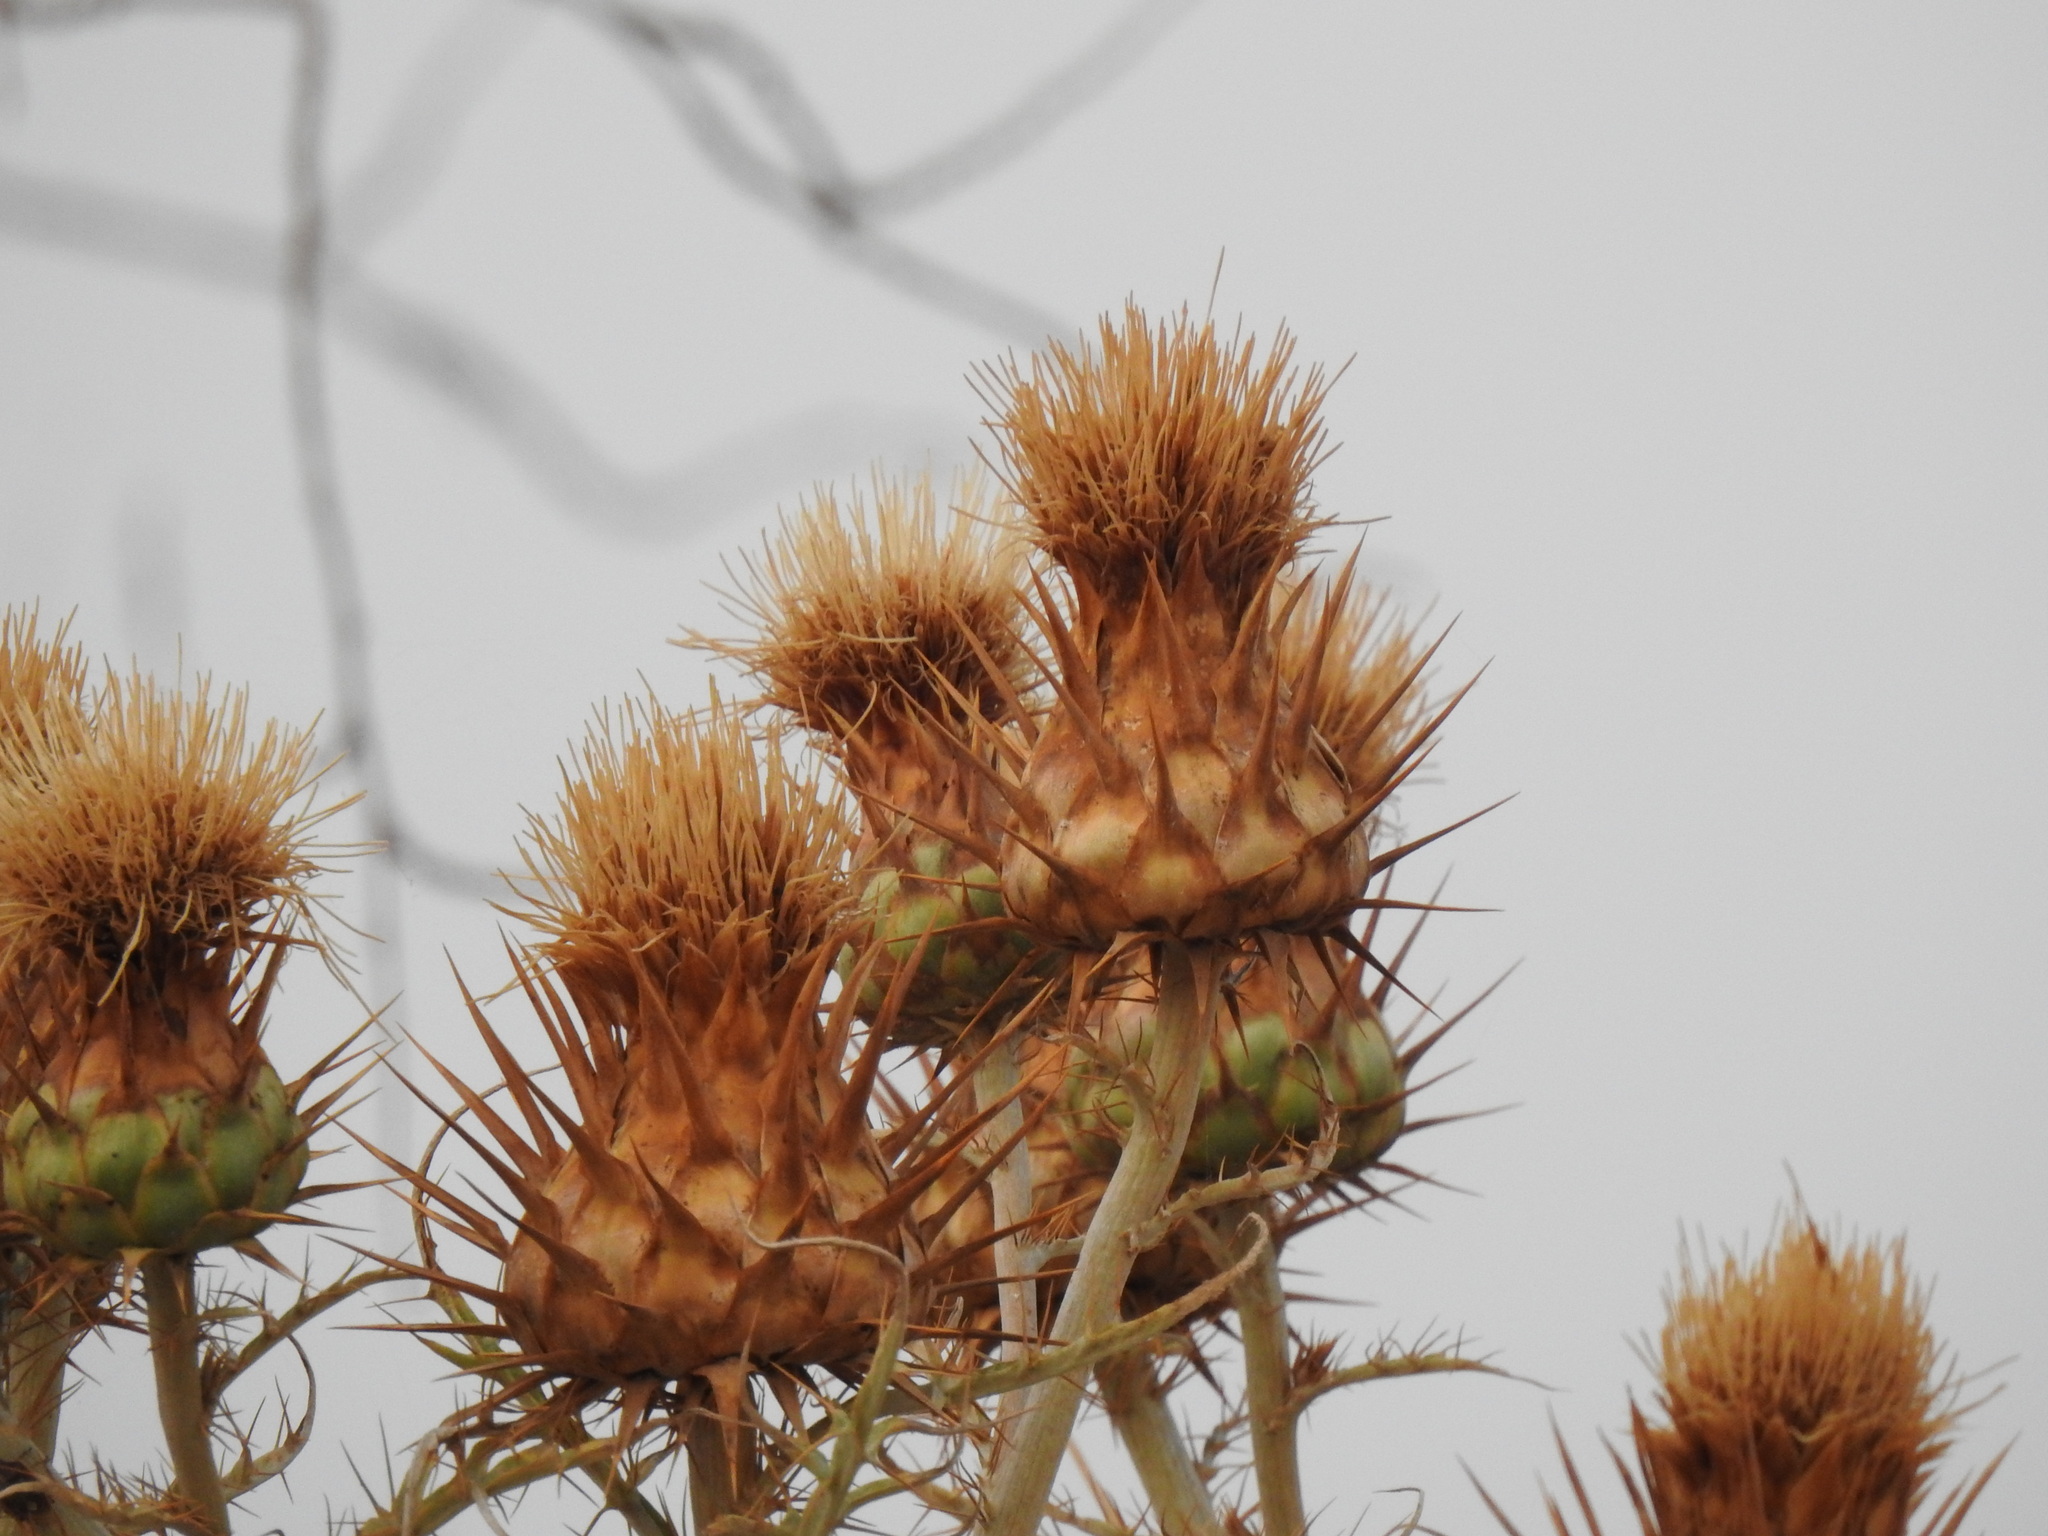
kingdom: Plantae
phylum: Tracheophyta
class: Magnoliopsida
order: Asterales
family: Asteraceae
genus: Cynara
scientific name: Cynara cardunculus
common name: Globe artichoke
